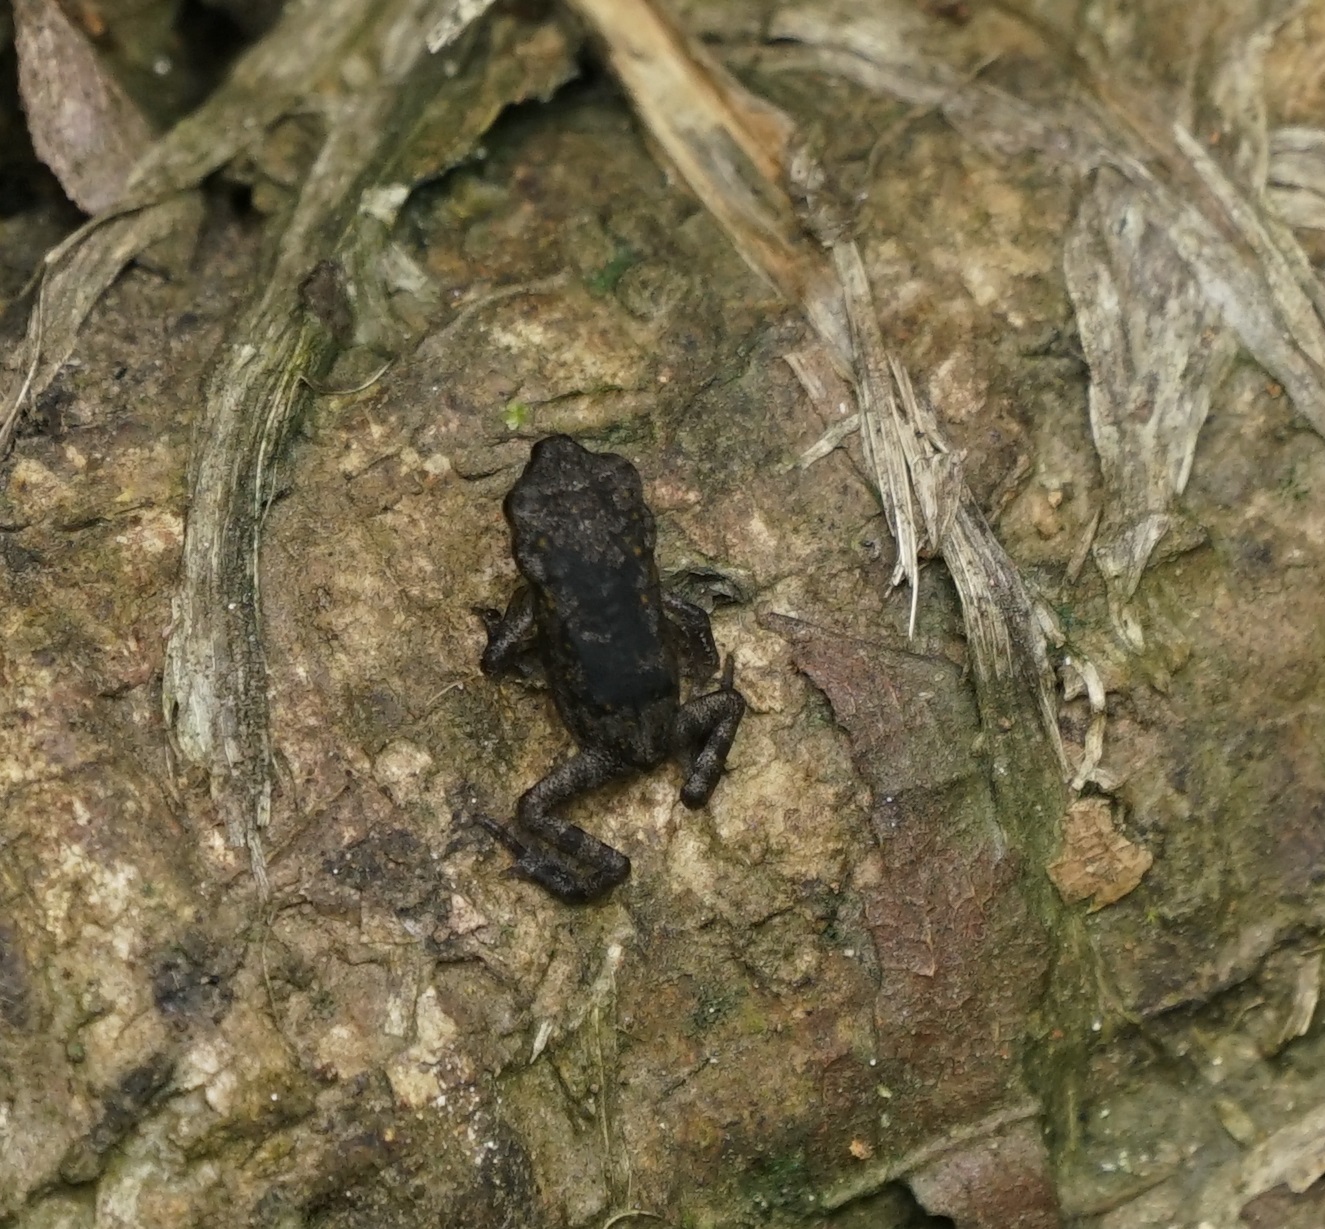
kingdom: Animalia
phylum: Chordata
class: Amphibia
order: Anura
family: Bufonidae
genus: Rhinella
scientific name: Rhinella marina
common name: Cane toad
